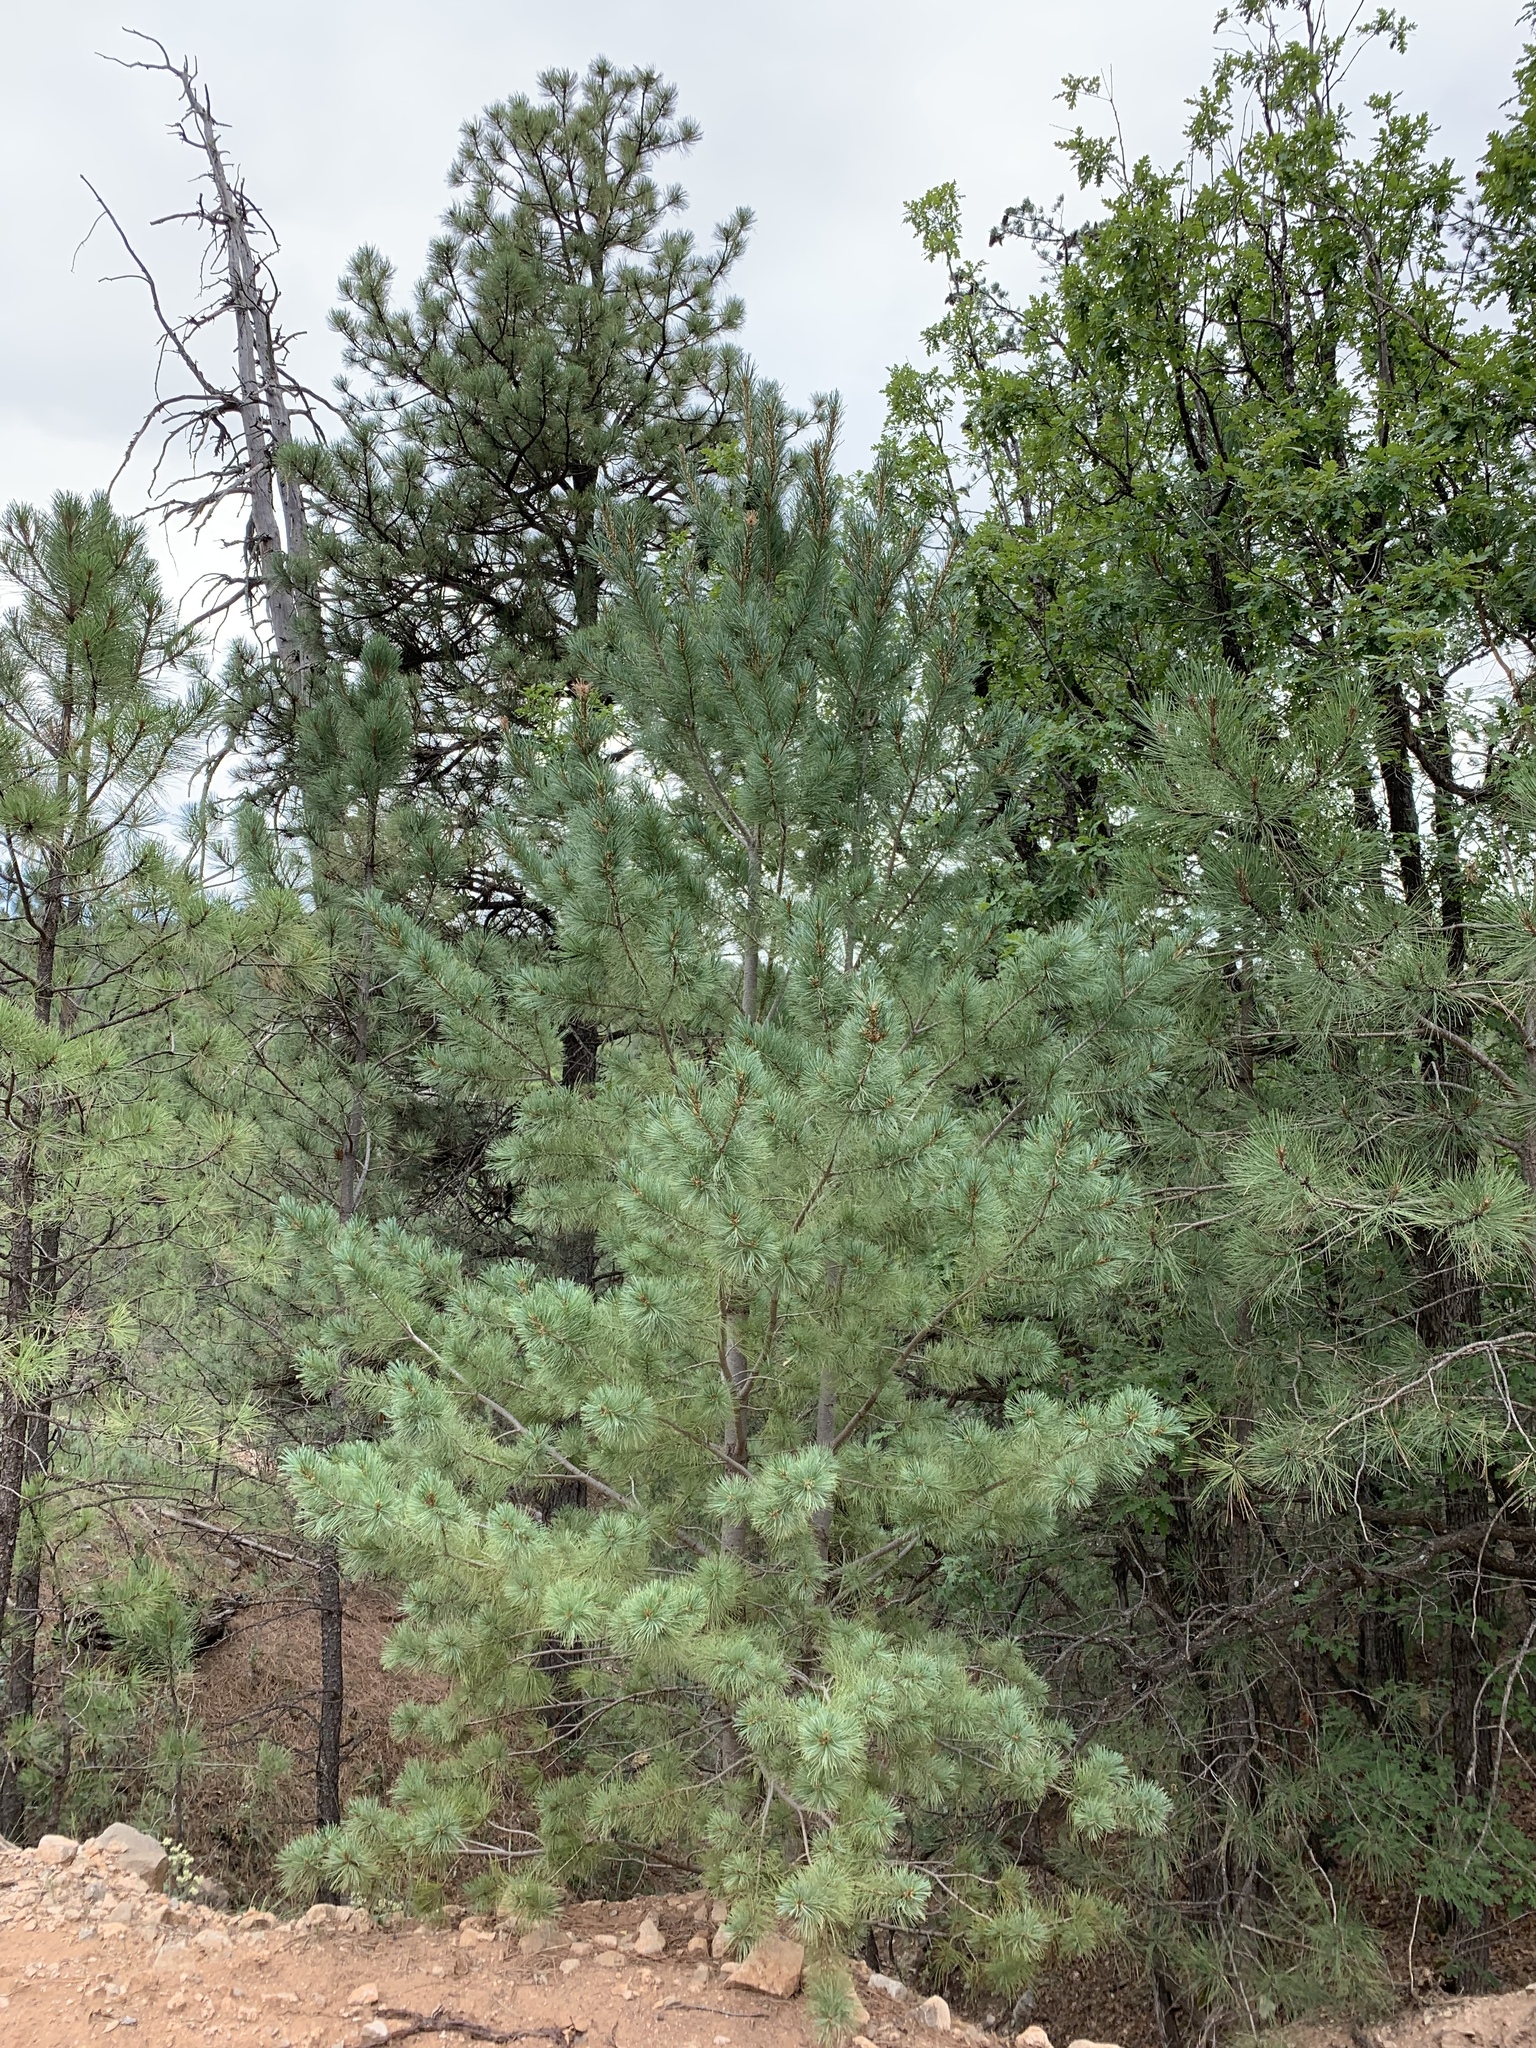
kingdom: Plantae
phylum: Tracheophyta
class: Pinopsida
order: Pinales
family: Pinaceae
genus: Pinus
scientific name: Pinus strobiformis
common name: Southwestern white pine
